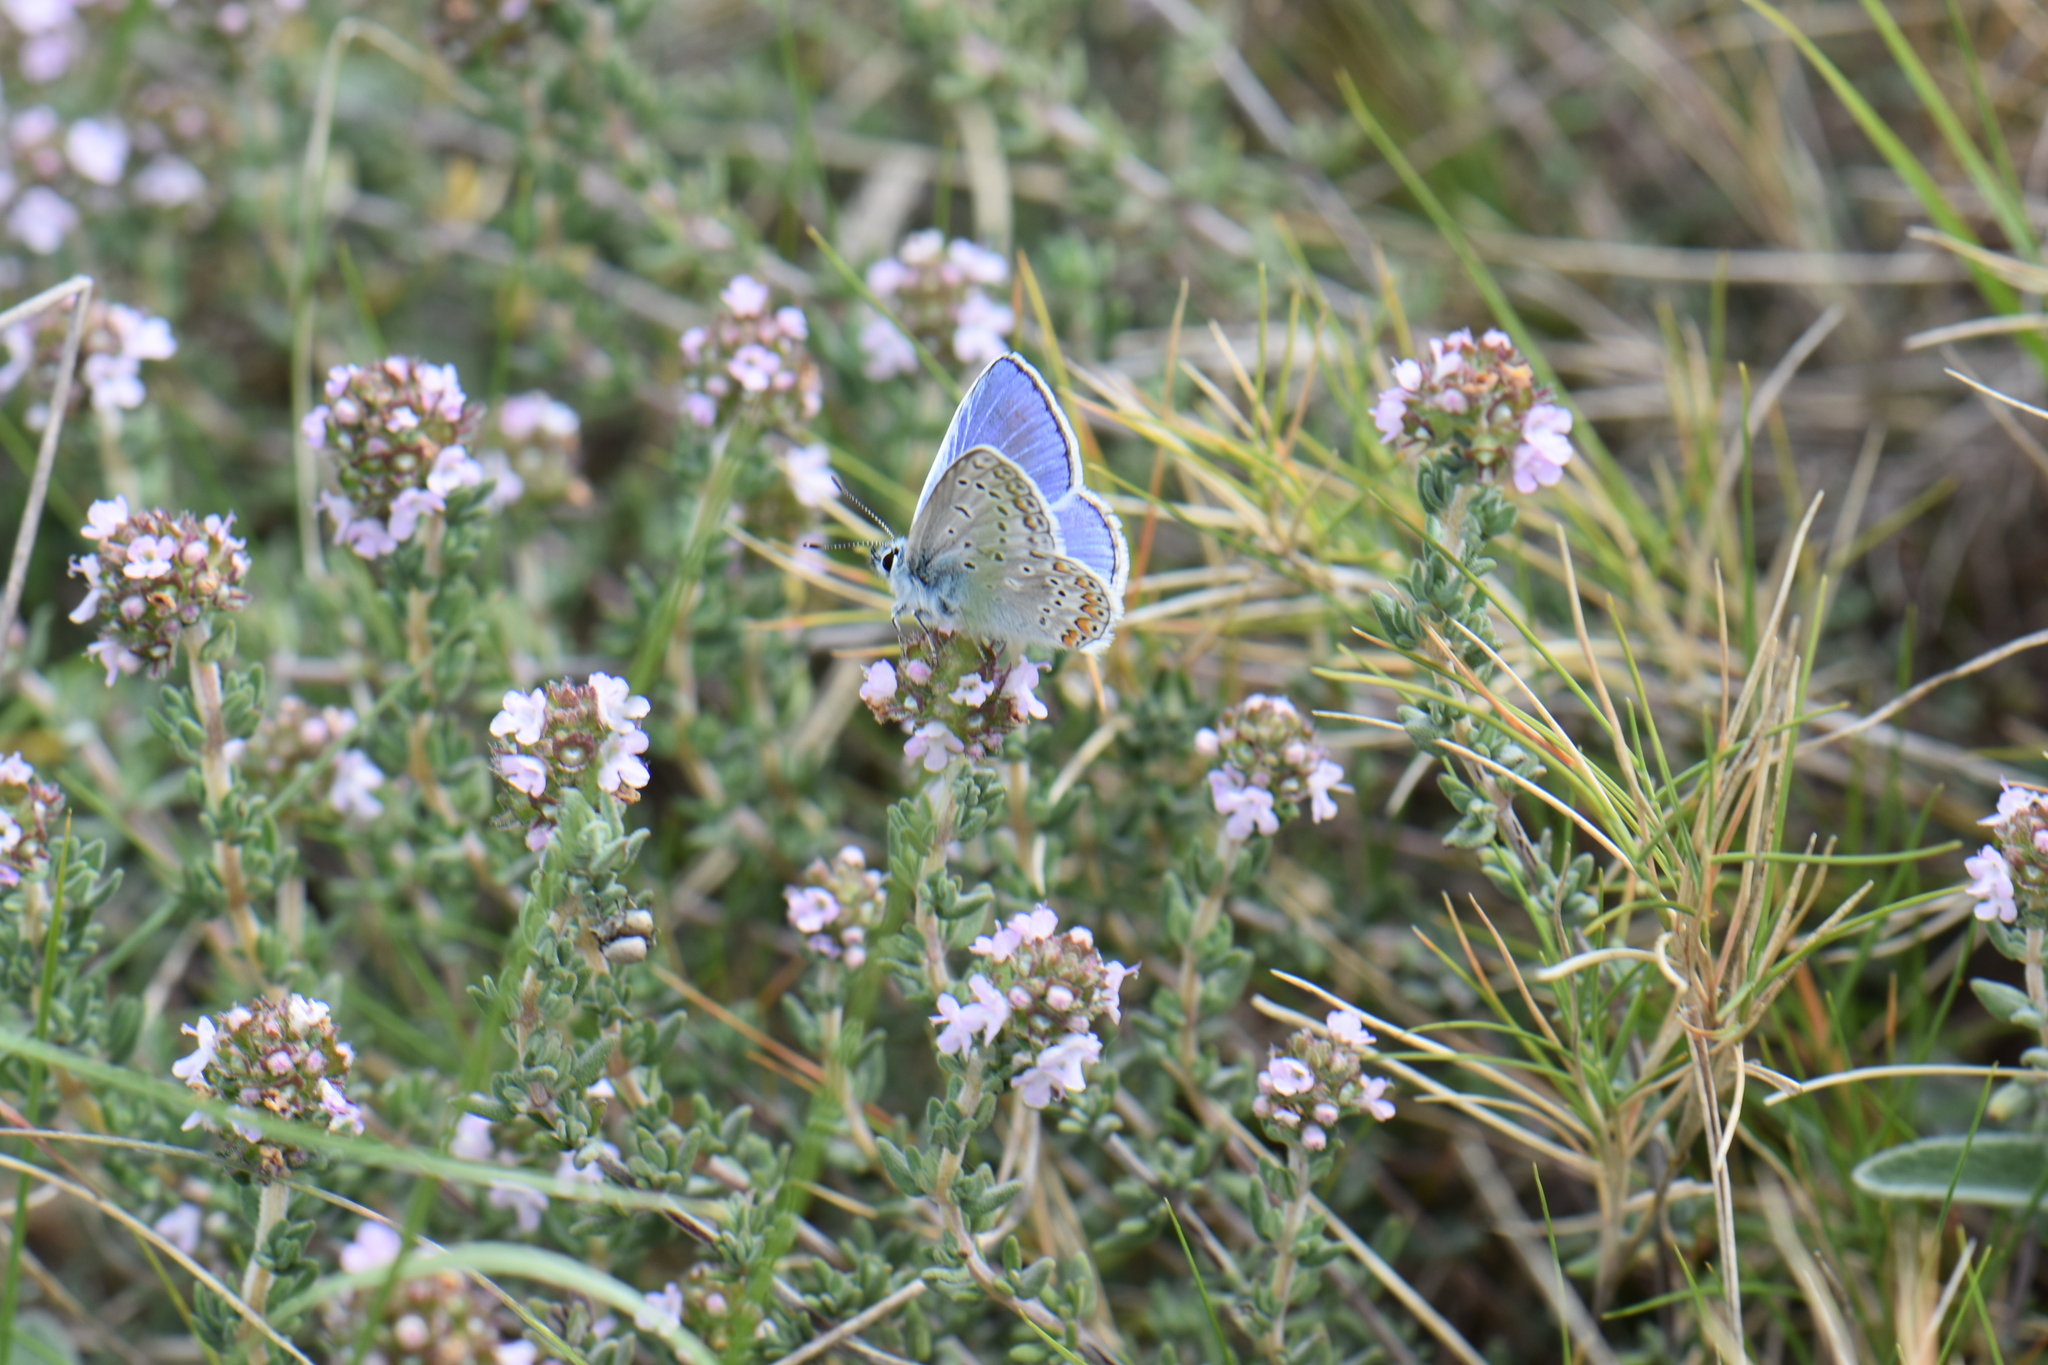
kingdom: Animalia
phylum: Arthropoda
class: Insecta
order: Lepidoptera
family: Lycaenidae
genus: Polyommatus
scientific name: Polyommatus icarus
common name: Common blue
